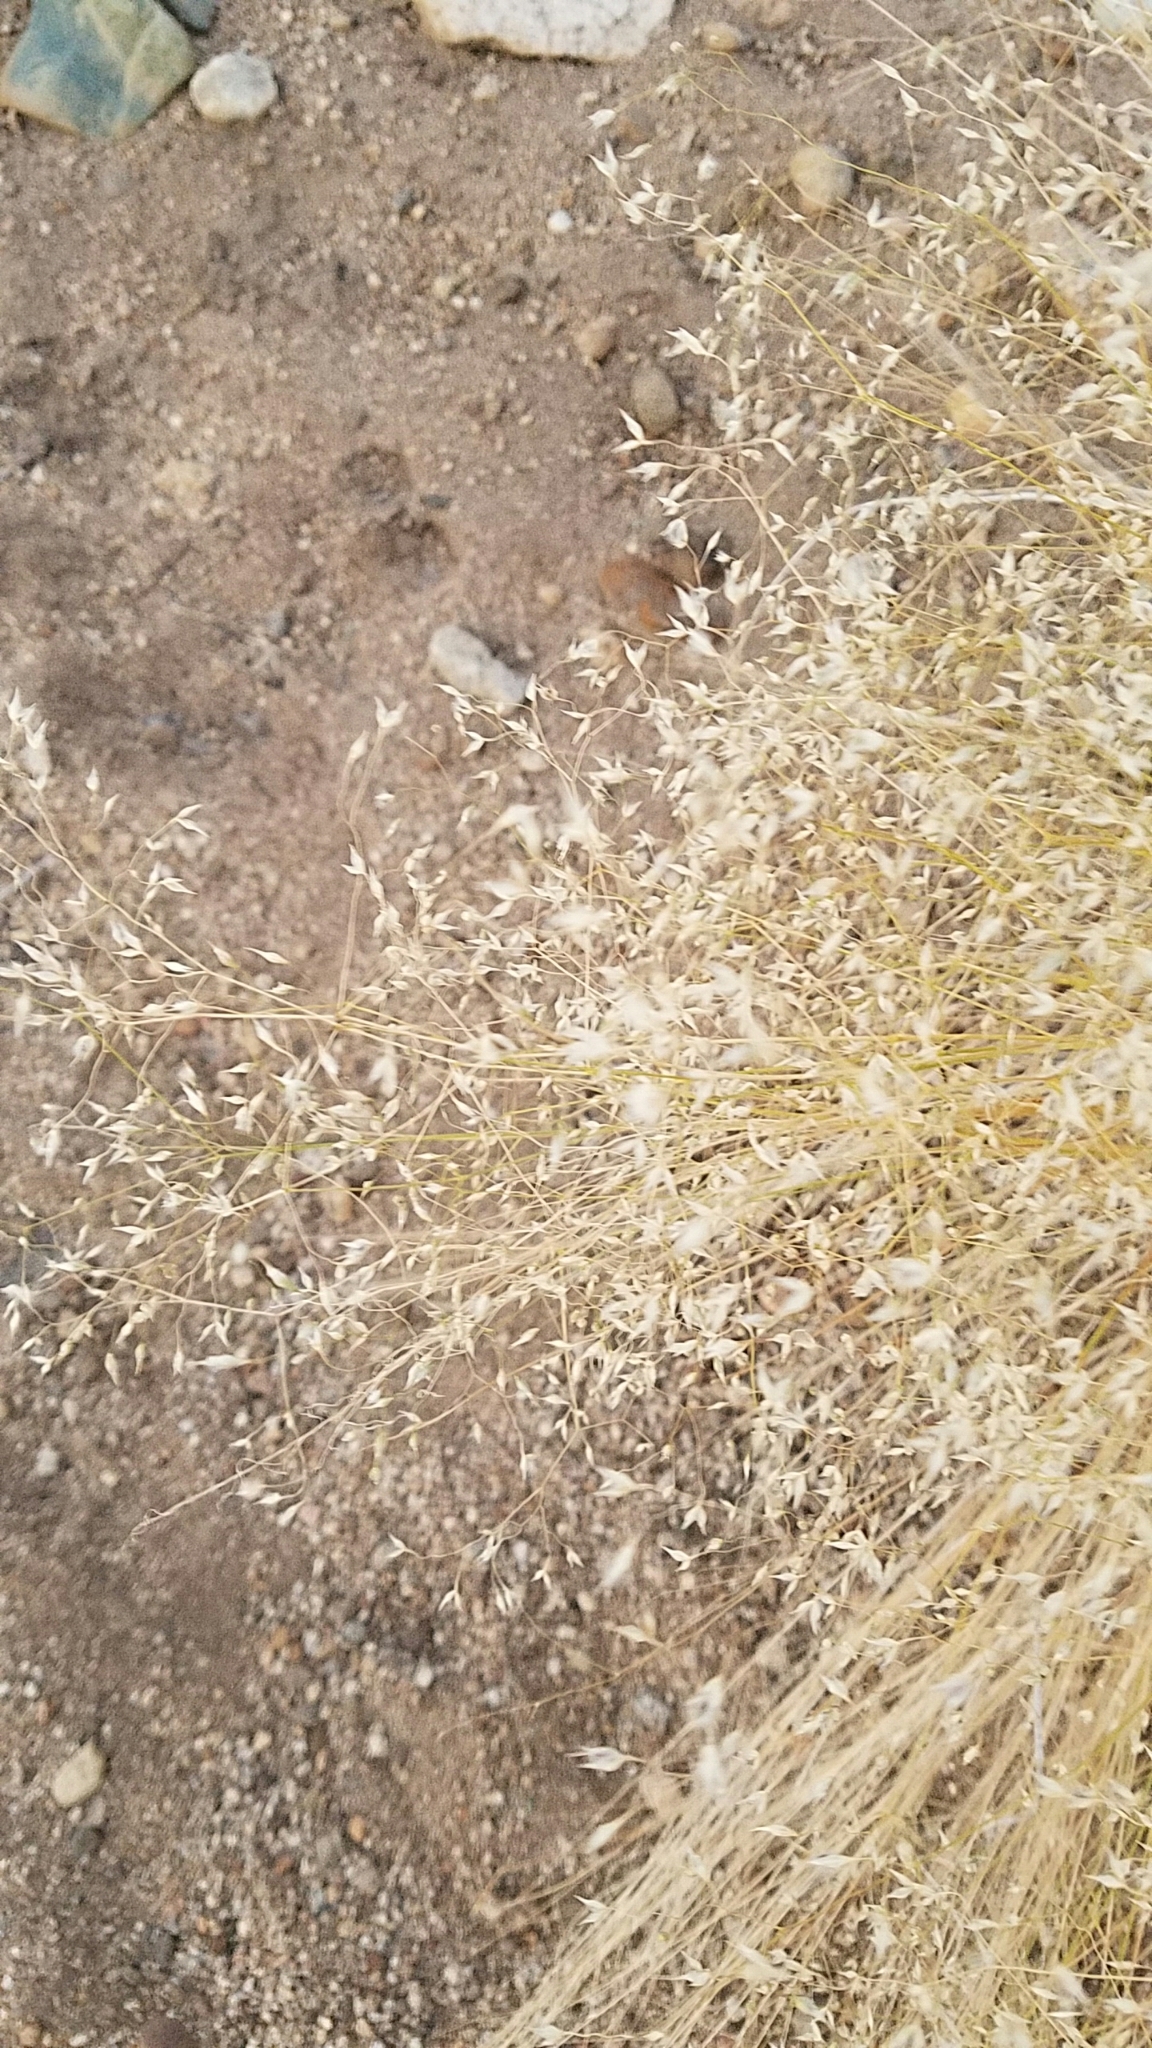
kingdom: Plantae
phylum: Tracheophyta
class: Liliopsida
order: Poales
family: Poaceae
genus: Eriocoma
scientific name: Eriocoma hymenoides
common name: Indian mountain ricegrass
